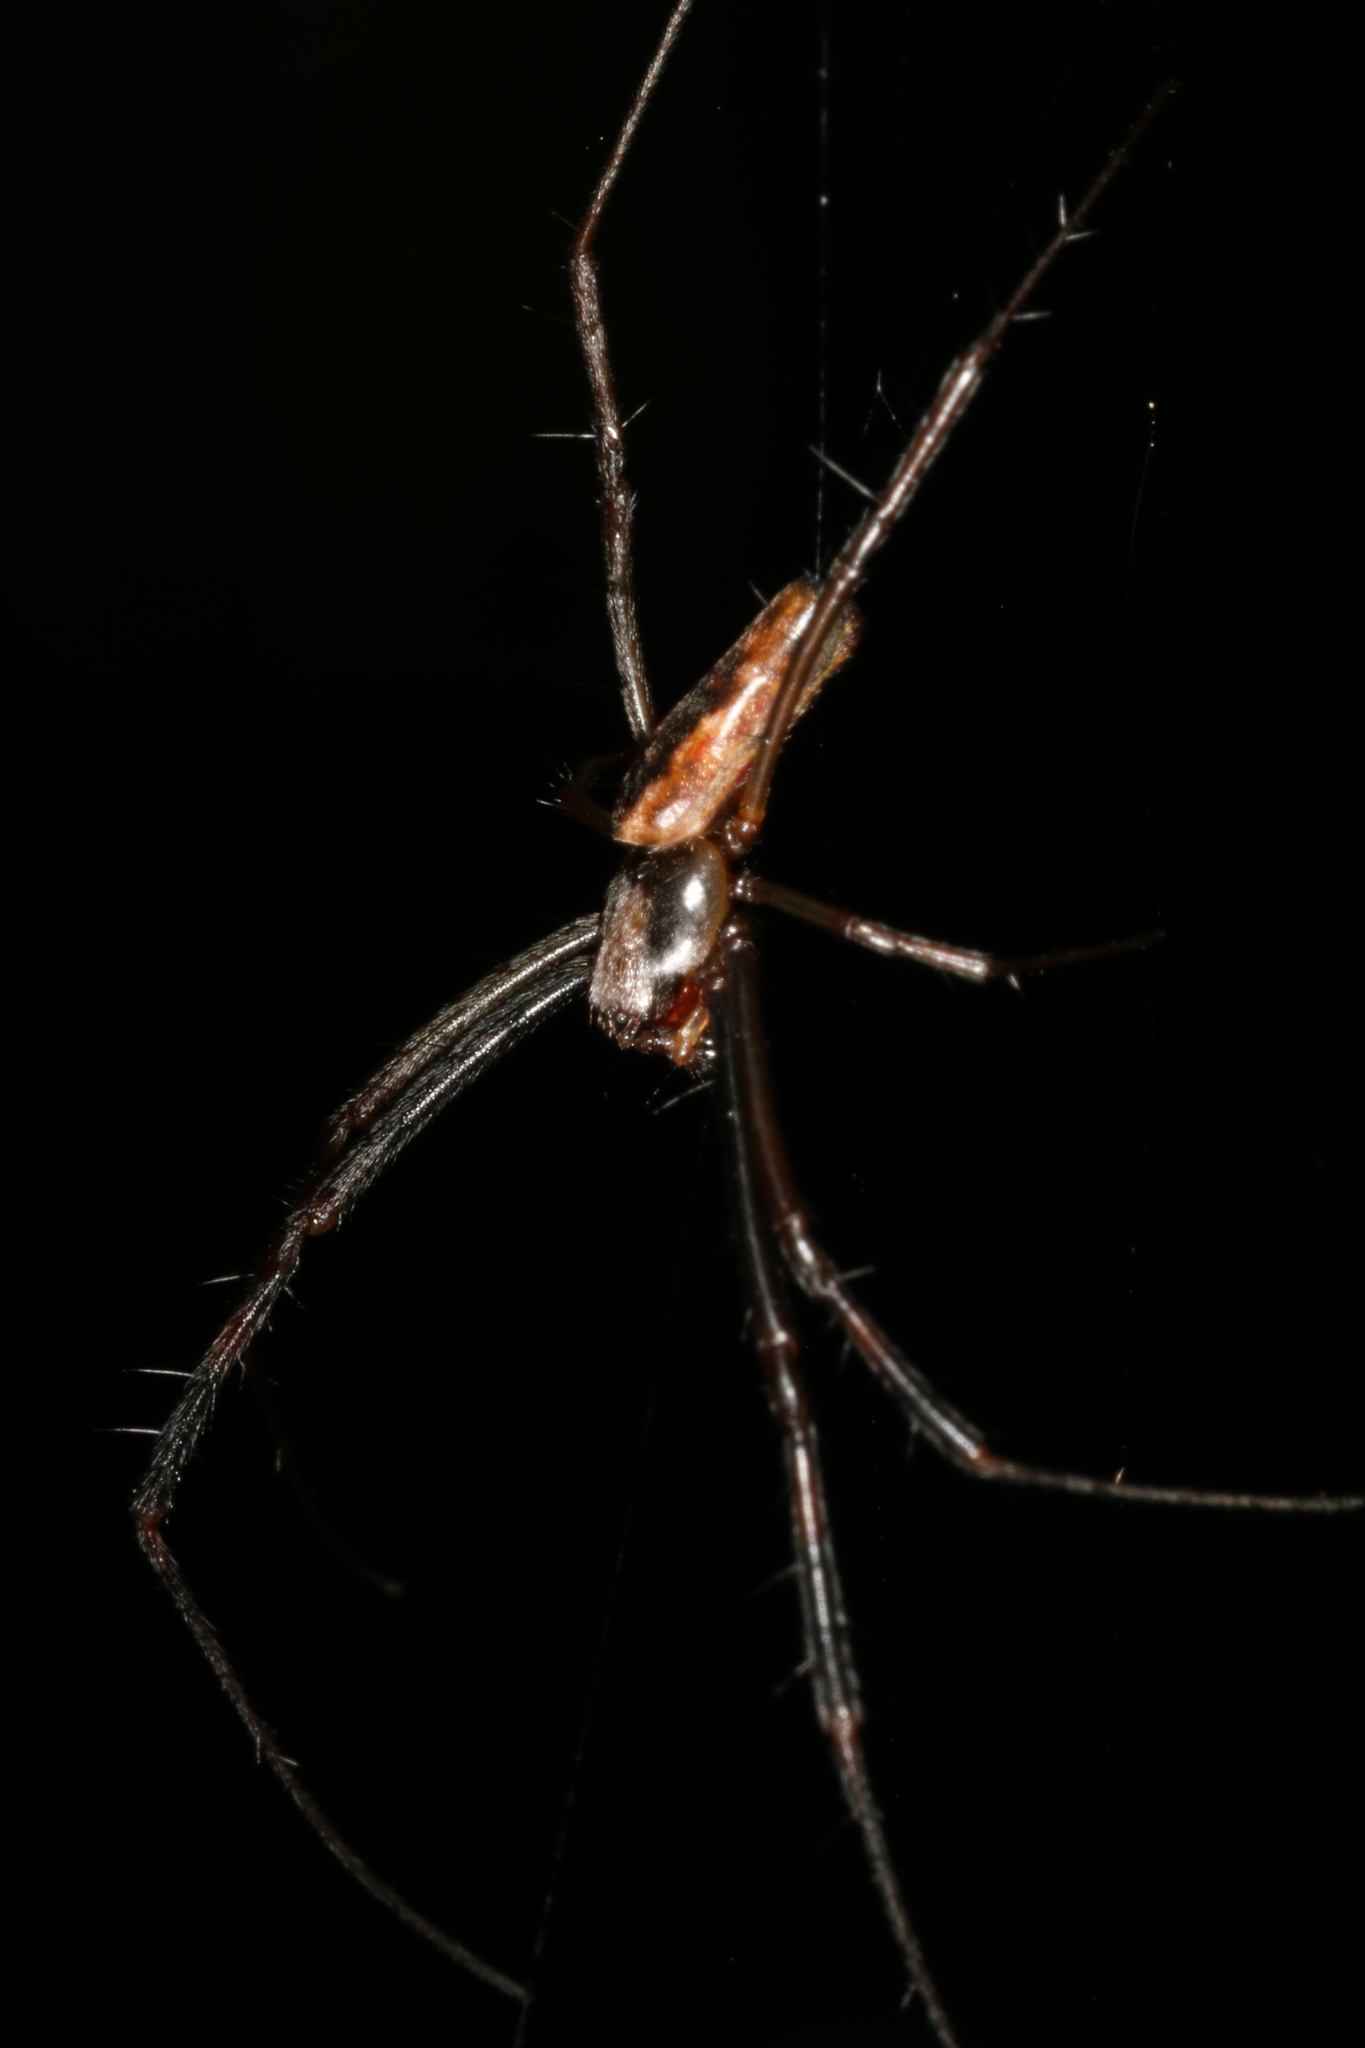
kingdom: Animalia
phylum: Arthropoda
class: Arachnida
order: Araneae
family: Araneidae
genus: Trichonephila
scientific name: Trichonephila clavipes
